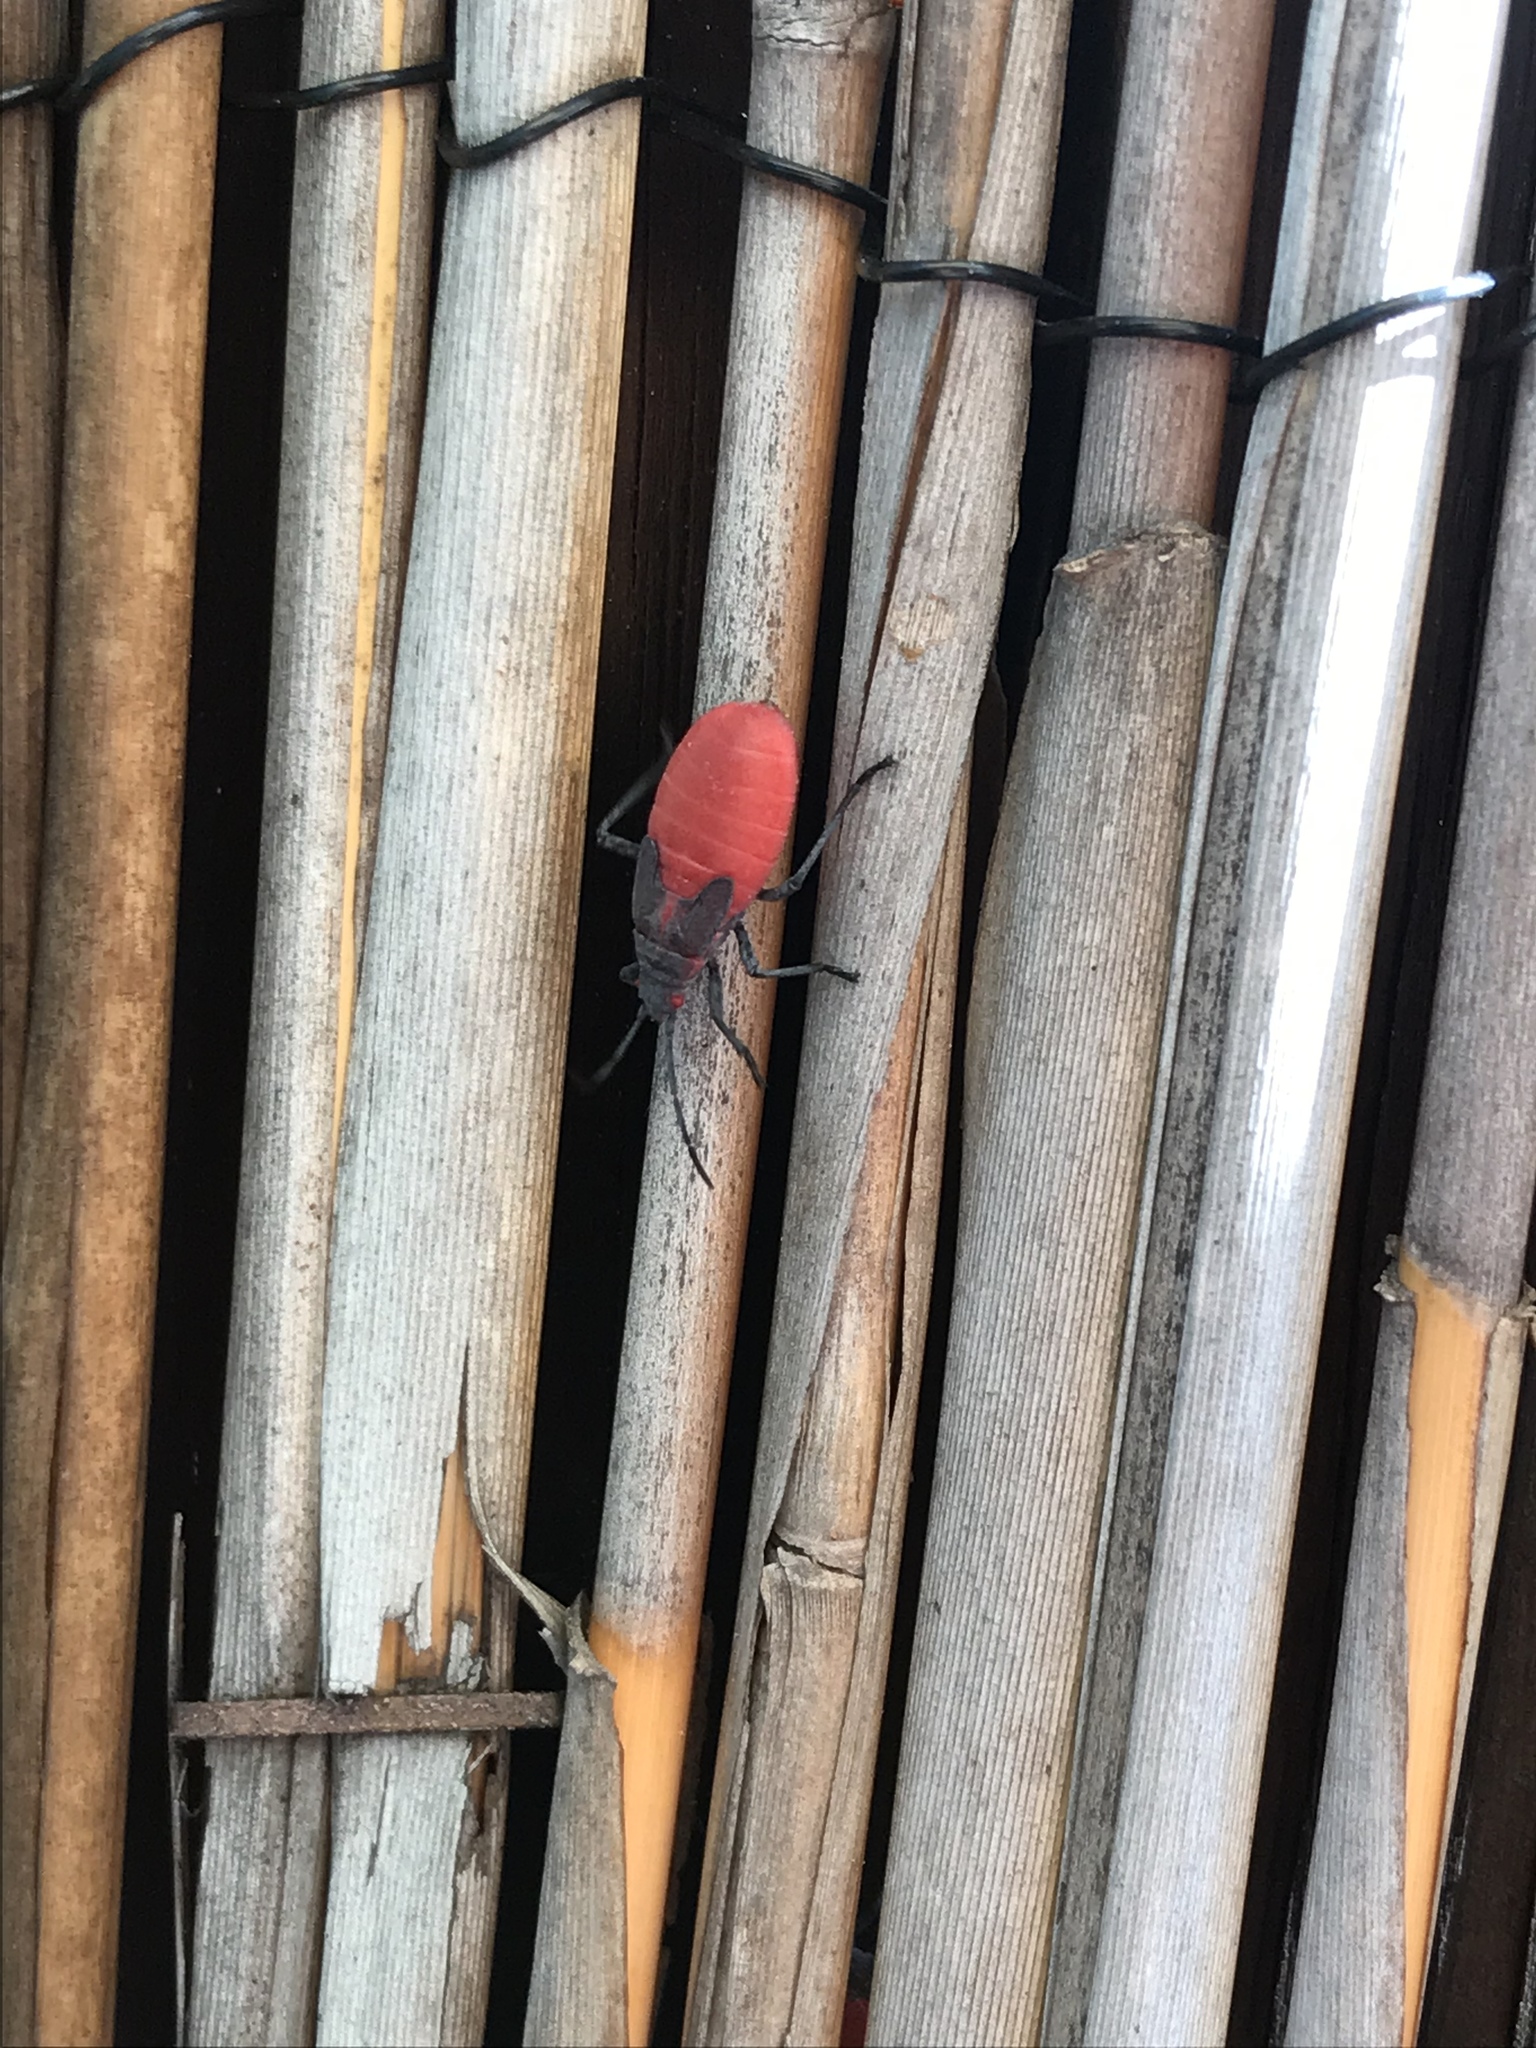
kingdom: Animalia
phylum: Arthropoda
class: Insecta
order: Hemiptera
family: Rhopalidae
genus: Jadera
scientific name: Jadera haematoloma
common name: Red-shouldered bug
